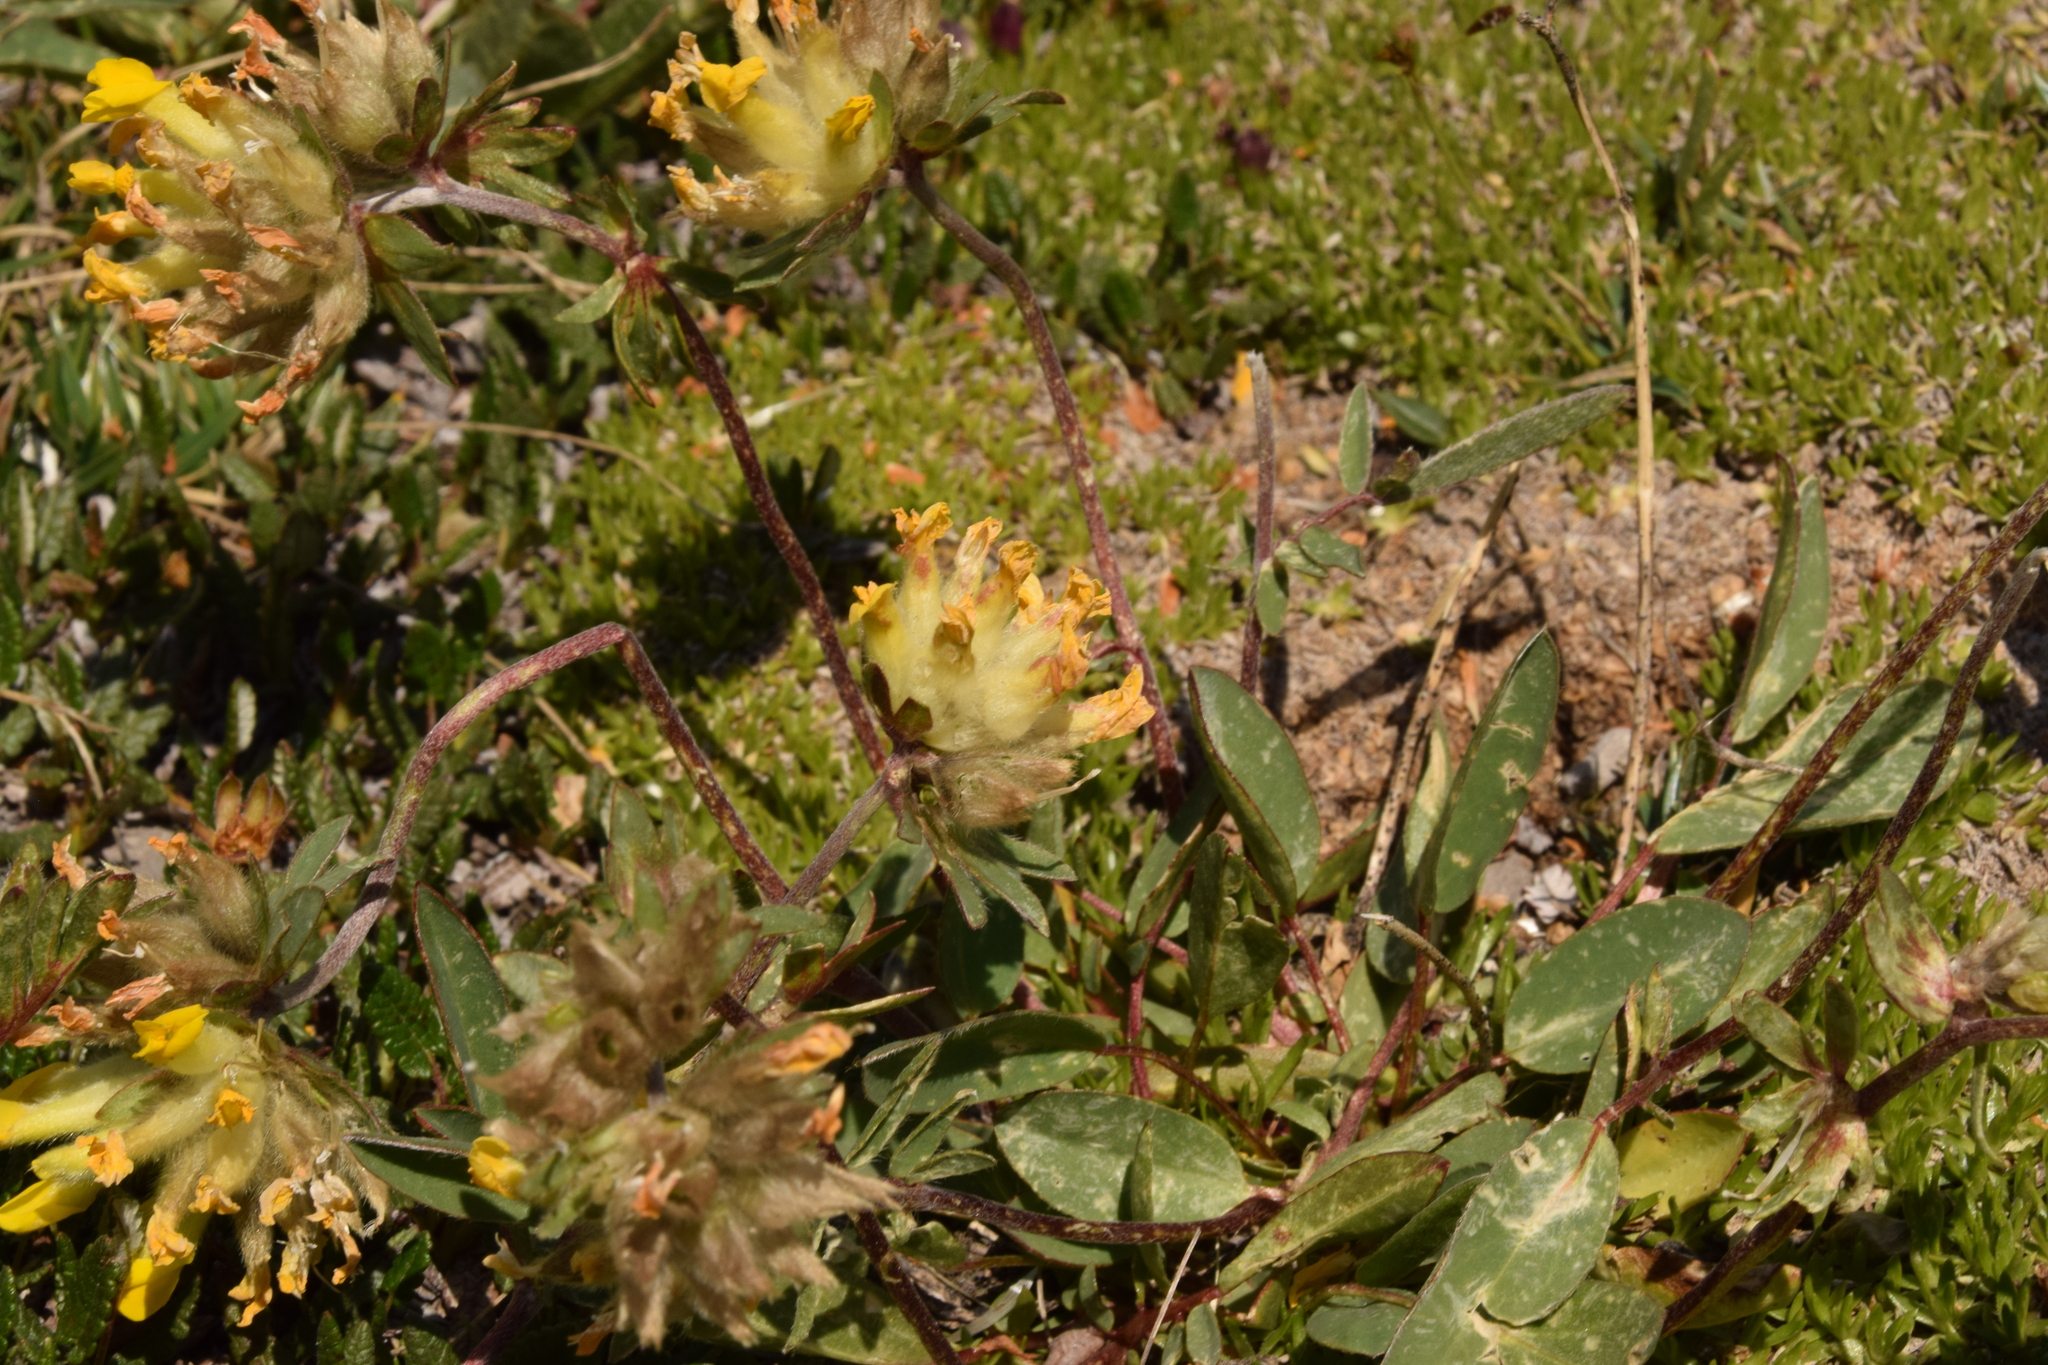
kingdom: Plantae
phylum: Tracheophyta
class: Magnoliopsida
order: Fabales
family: Fabaceae
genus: Anthyllis
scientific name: Anthyllis vulneraria
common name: Kidney vetch
